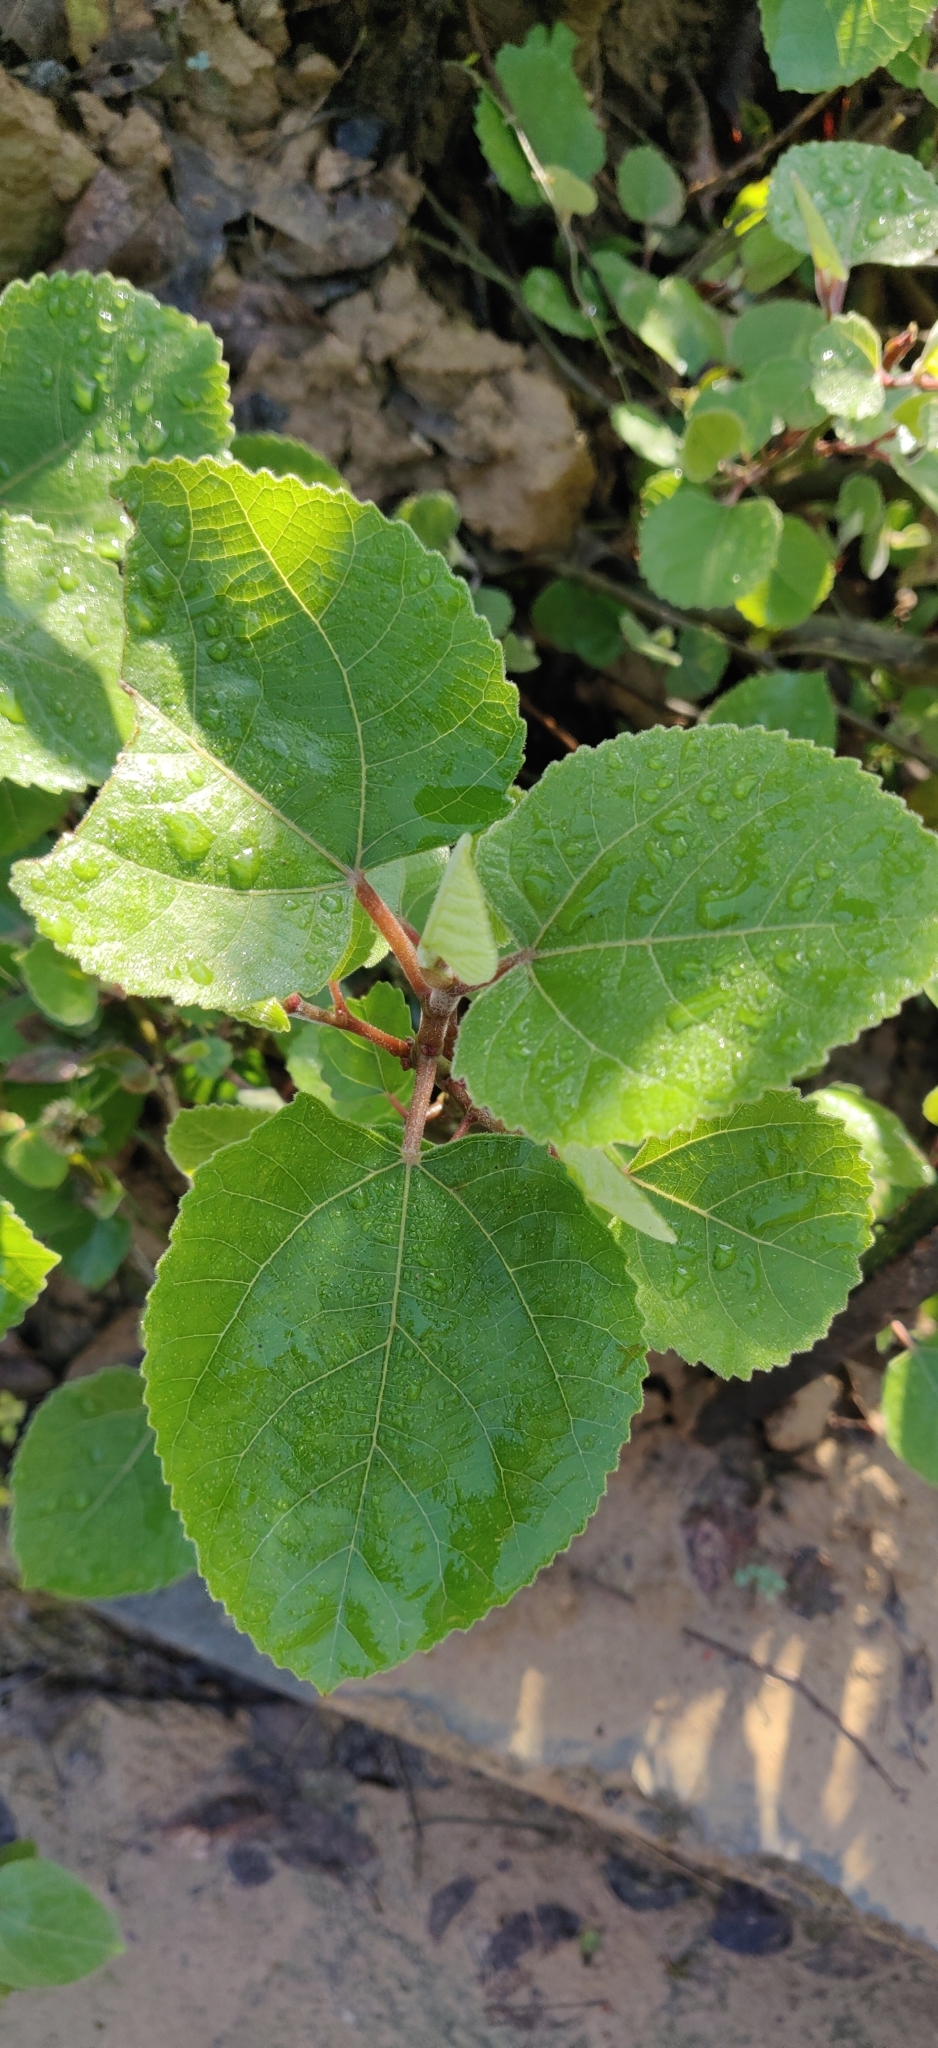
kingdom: Plantae
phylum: Tracheophyta
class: Magnoliopsida
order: Rosales
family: Moraceae
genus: Ficus
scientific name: Ficus palmata
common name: Punjab fig
